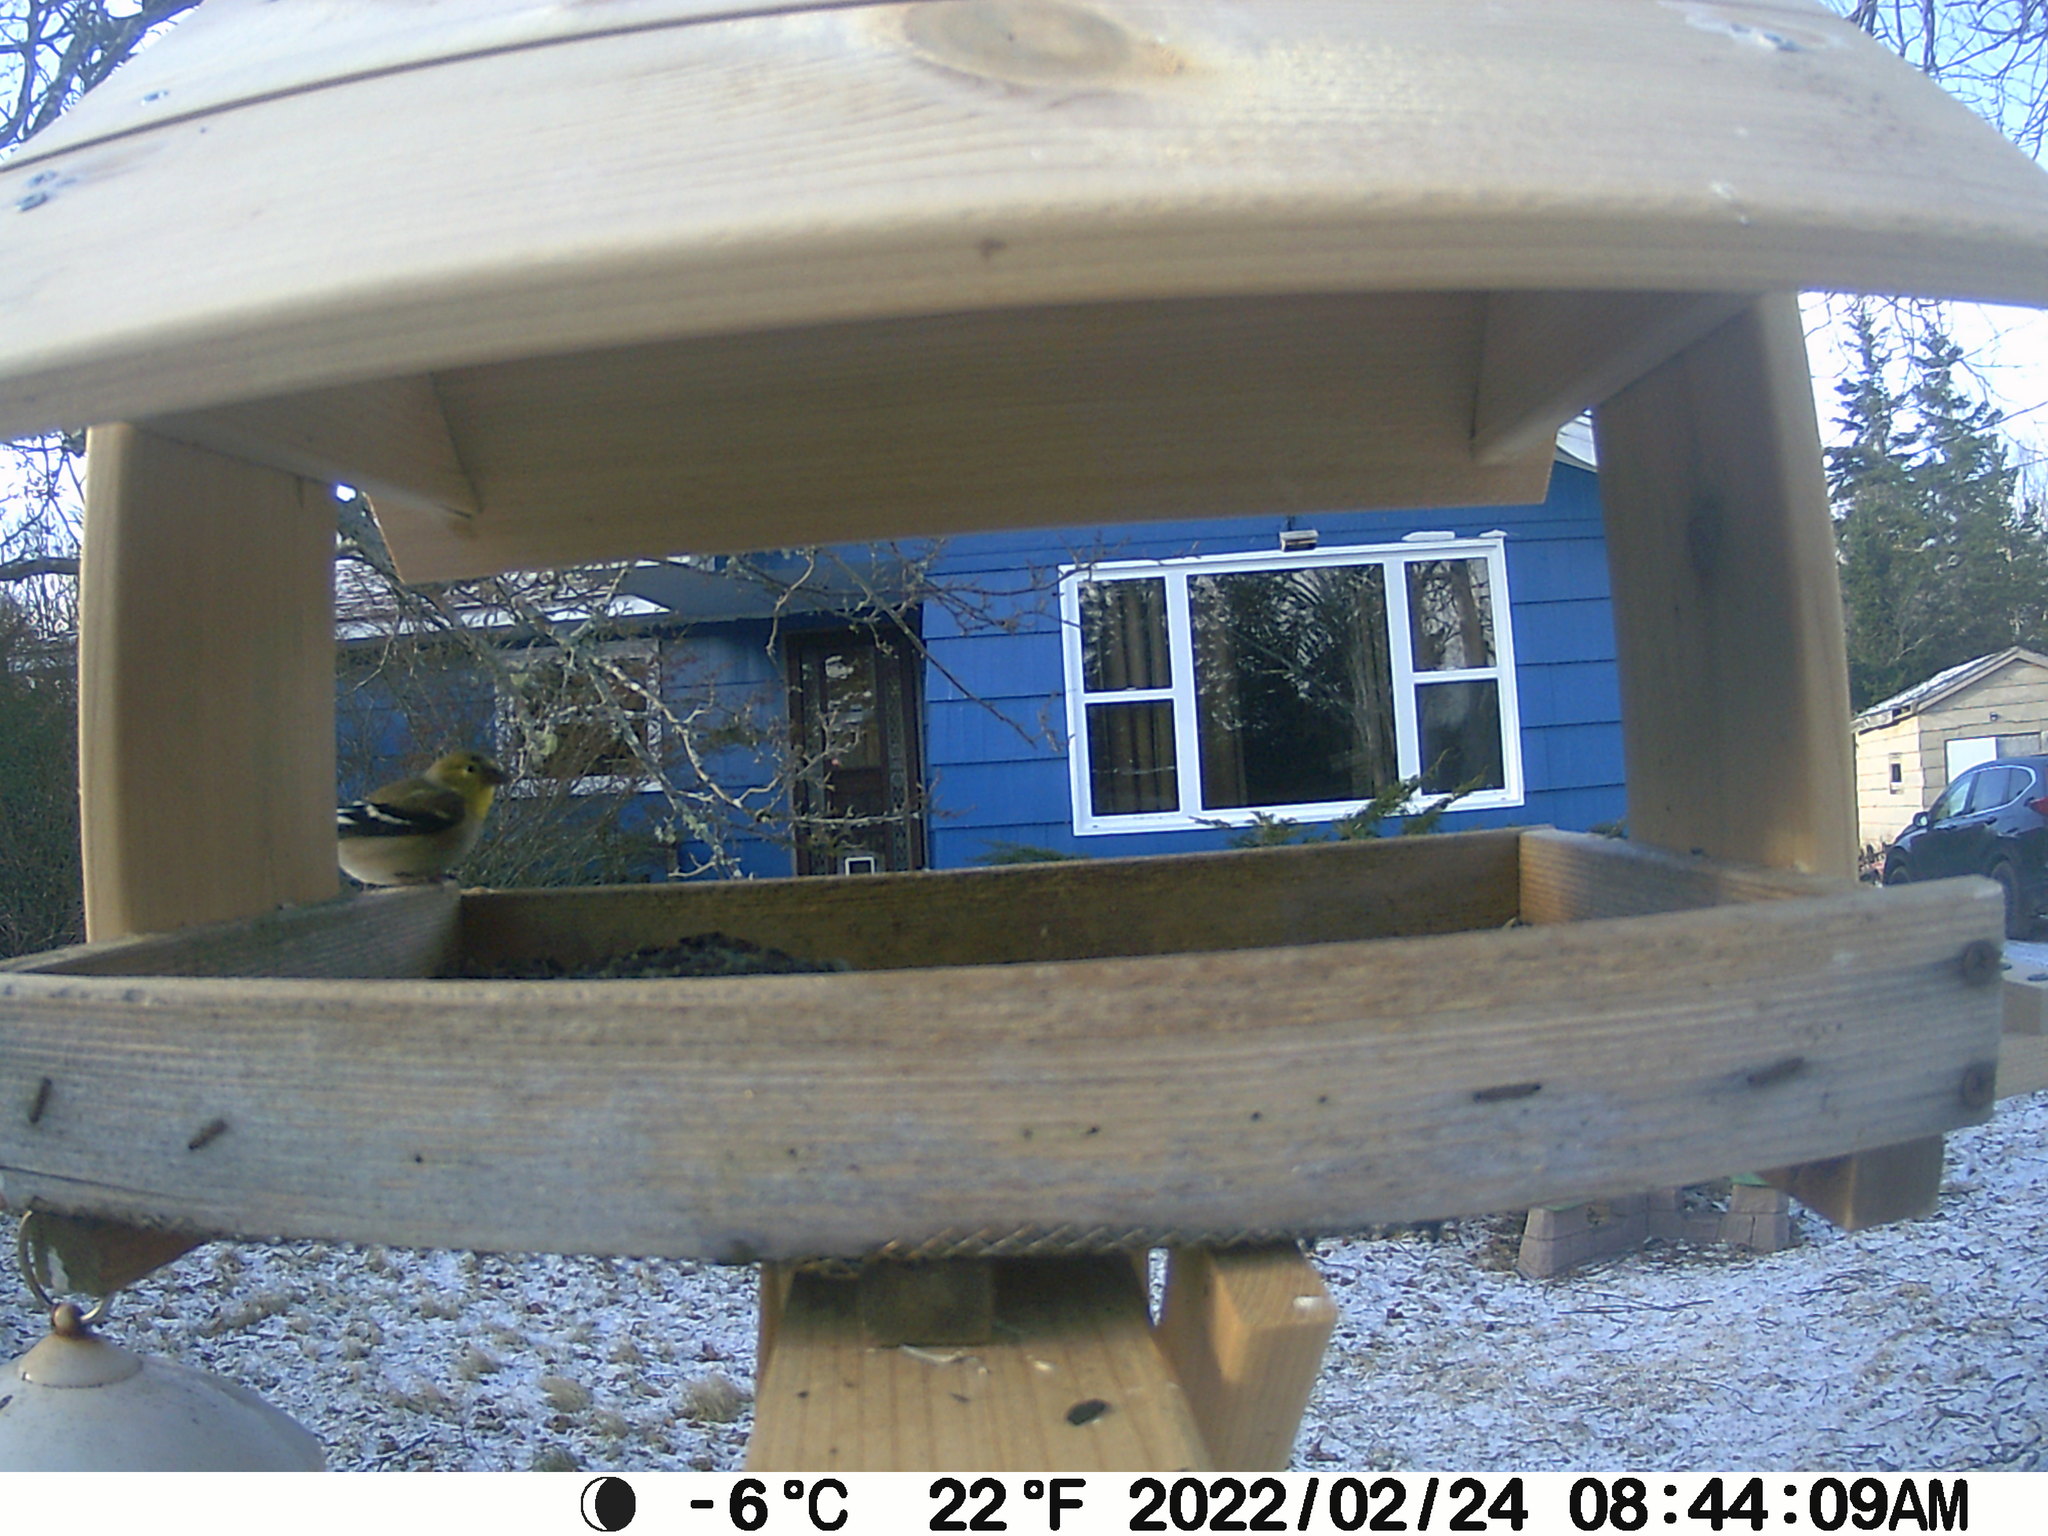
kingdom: Animalia
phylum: Chordata
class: Aves
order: Passeriformes
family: Fringillidae
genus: Spinus
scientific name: Spinus tristis
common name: American goldfinch
